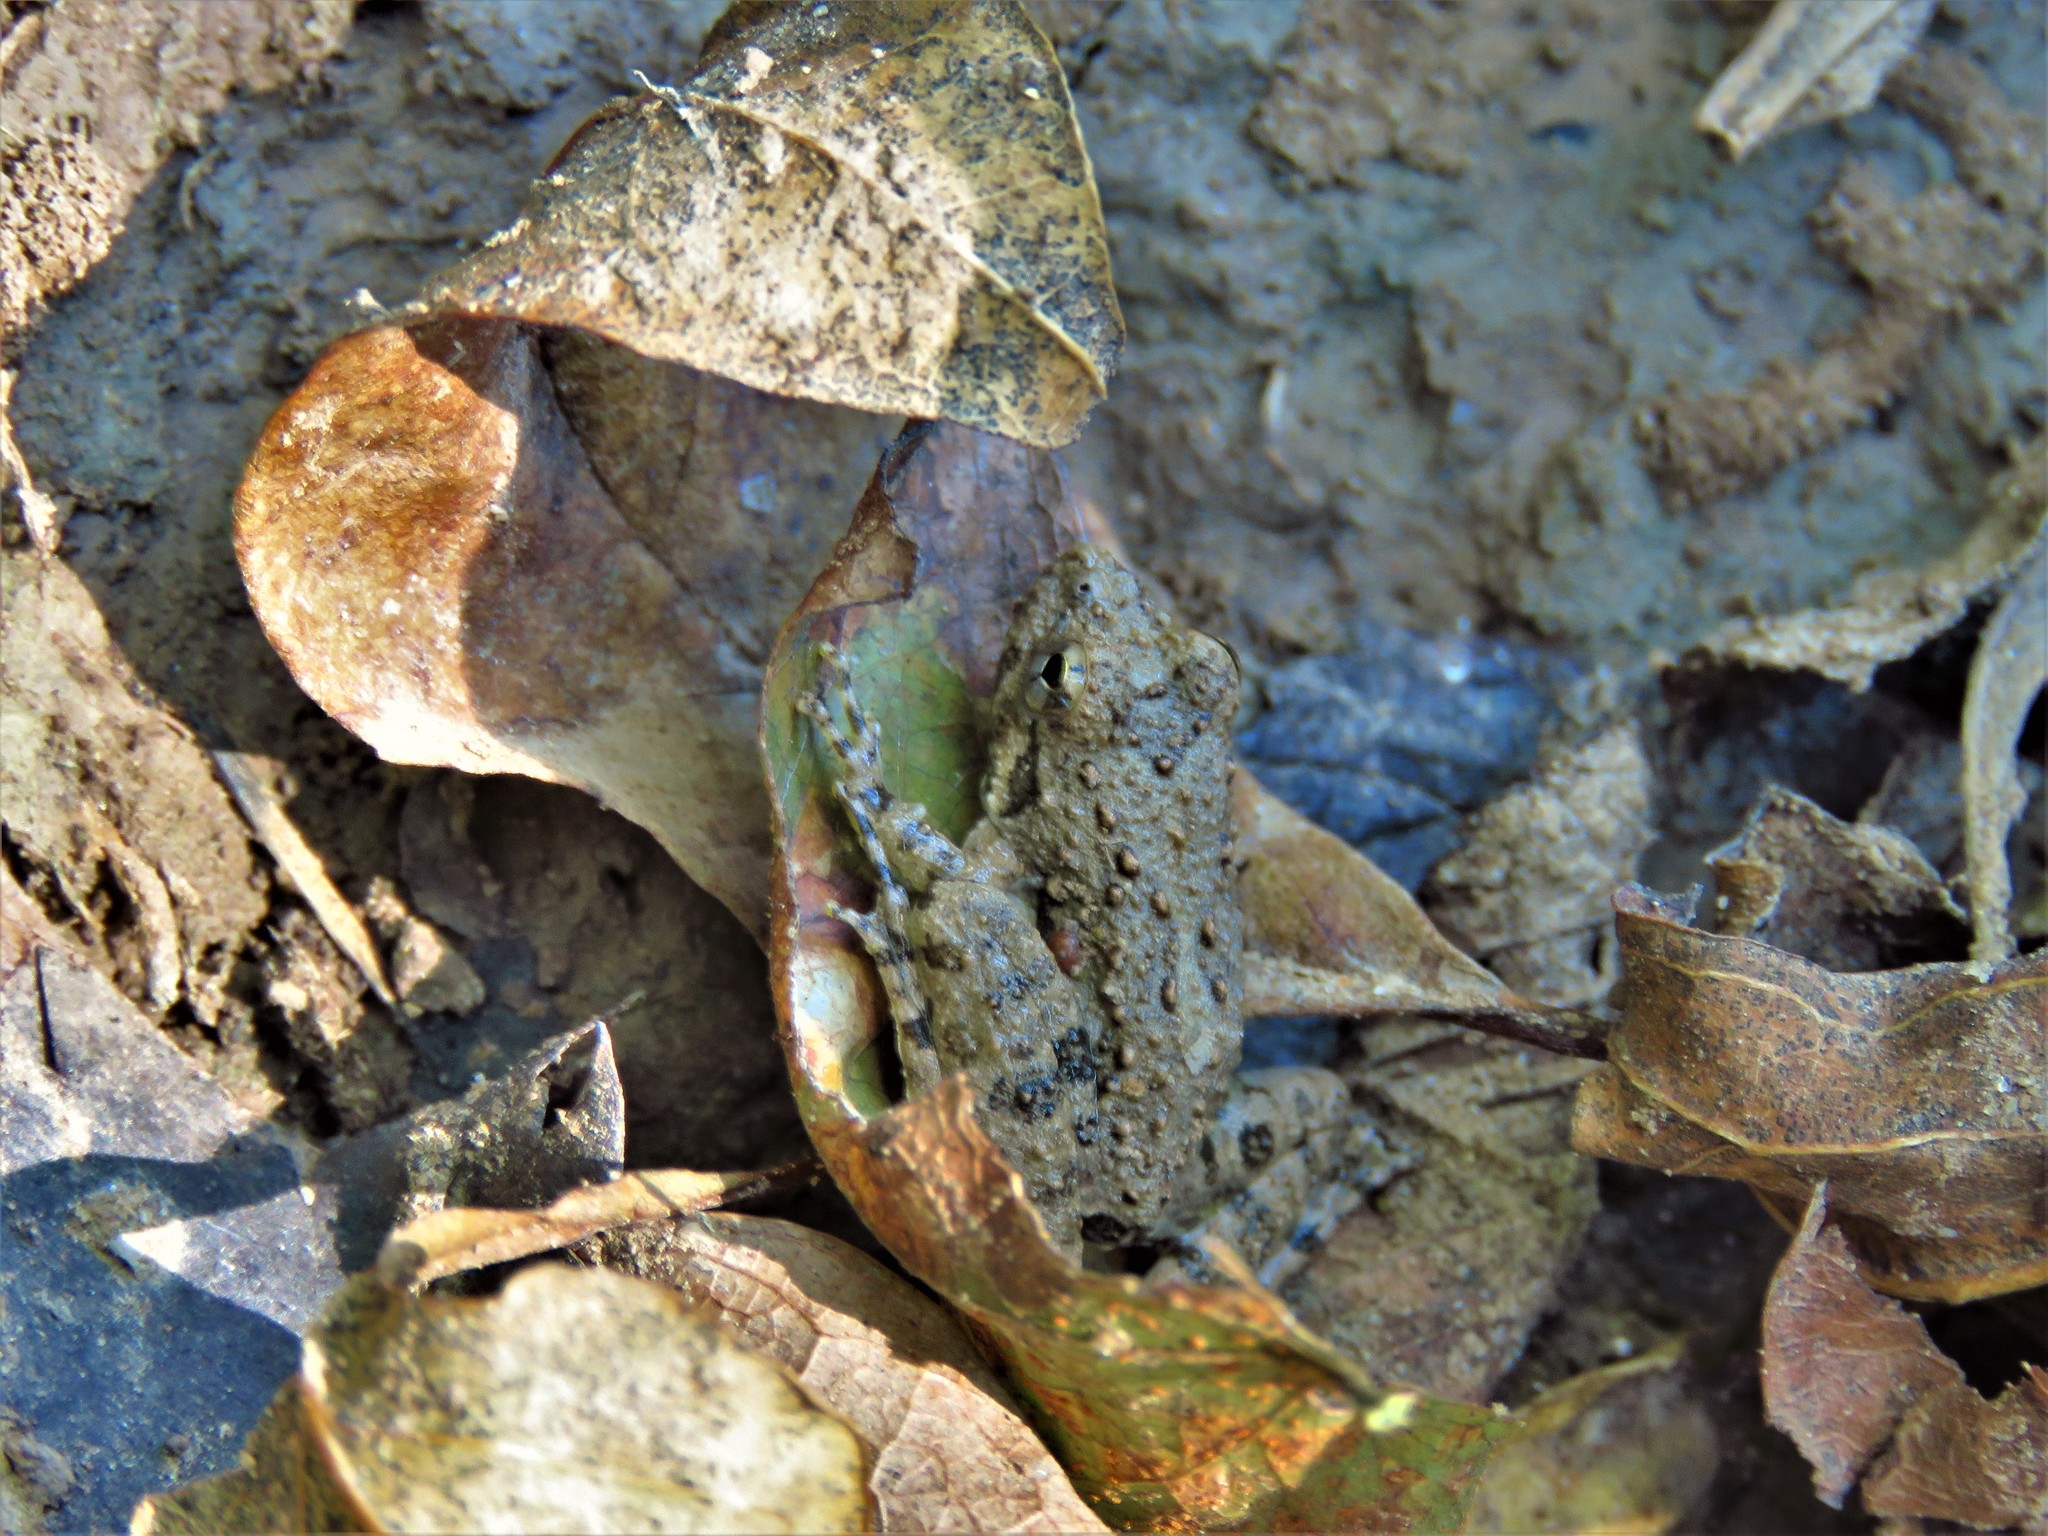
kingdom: Animalia
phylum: Chordata
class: Amphibia
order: Anura
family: Hylidae
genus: Acris
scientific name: Acris blanchardi
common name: Blanchard's cricket frog
